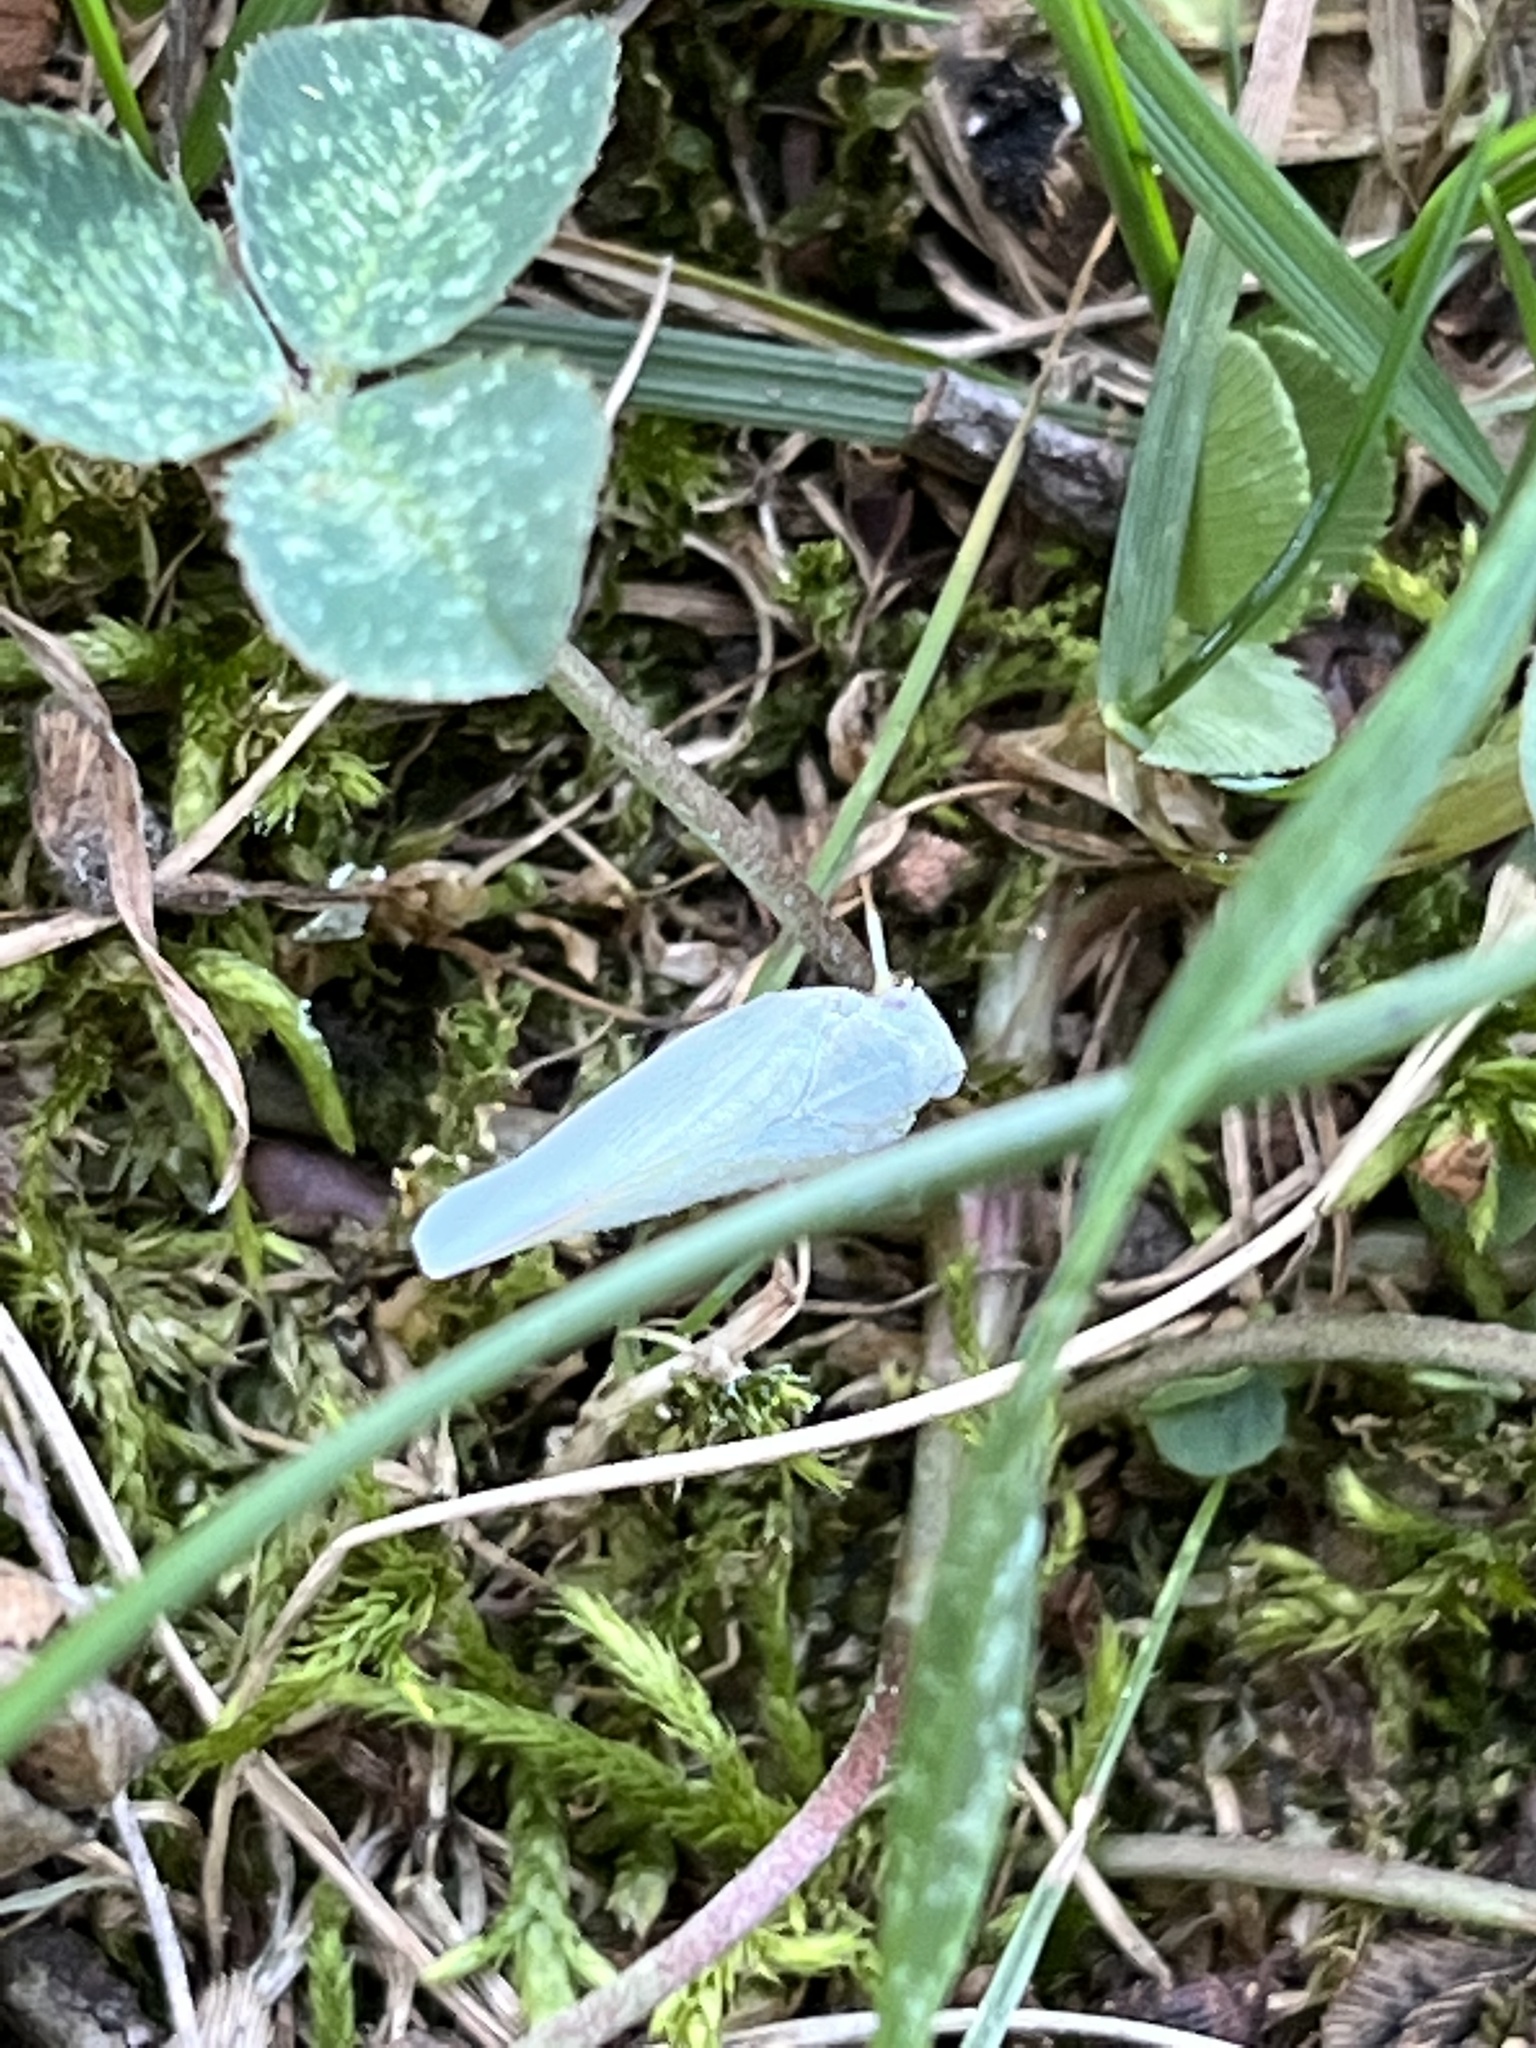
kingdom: Animalia
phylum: Arthropoda
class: Insecta
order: Hemiptera
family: Flatidae
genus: Flatormenis
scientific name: Flatormenis proxima
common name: Northern flatid planthopper
